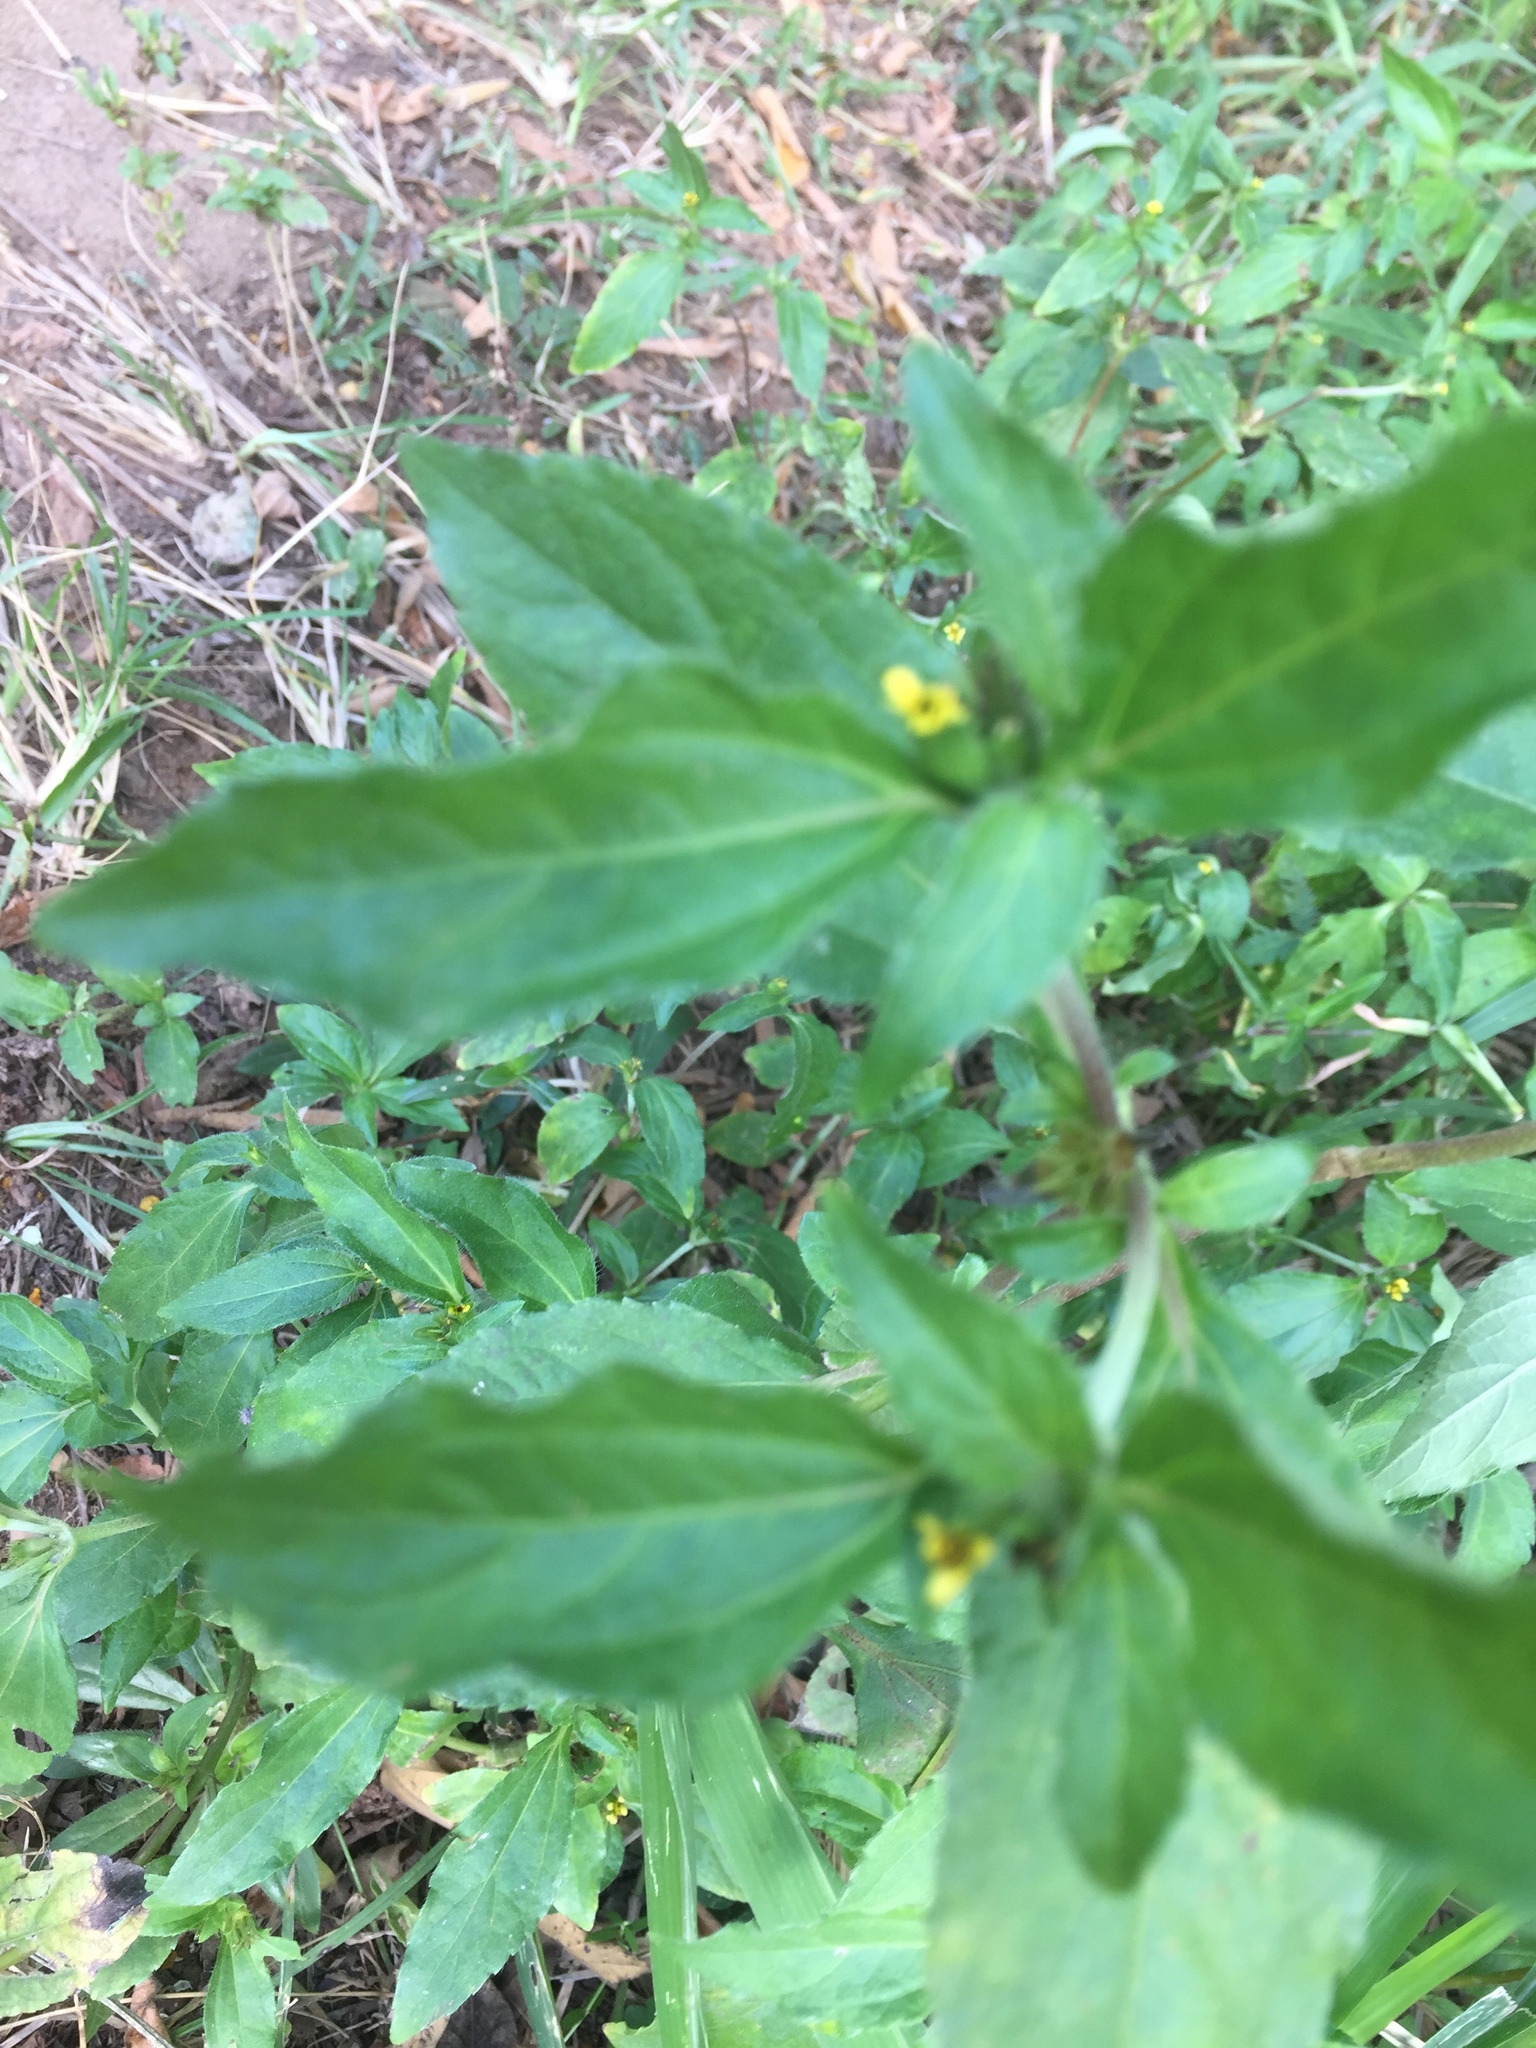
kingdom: Plantae
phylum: Tracheophyta
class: Magnoliopsida
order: Asterales
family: Asteraceae
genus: Synedrella
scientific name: Synedrella nodiflora
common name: Nodeweed
